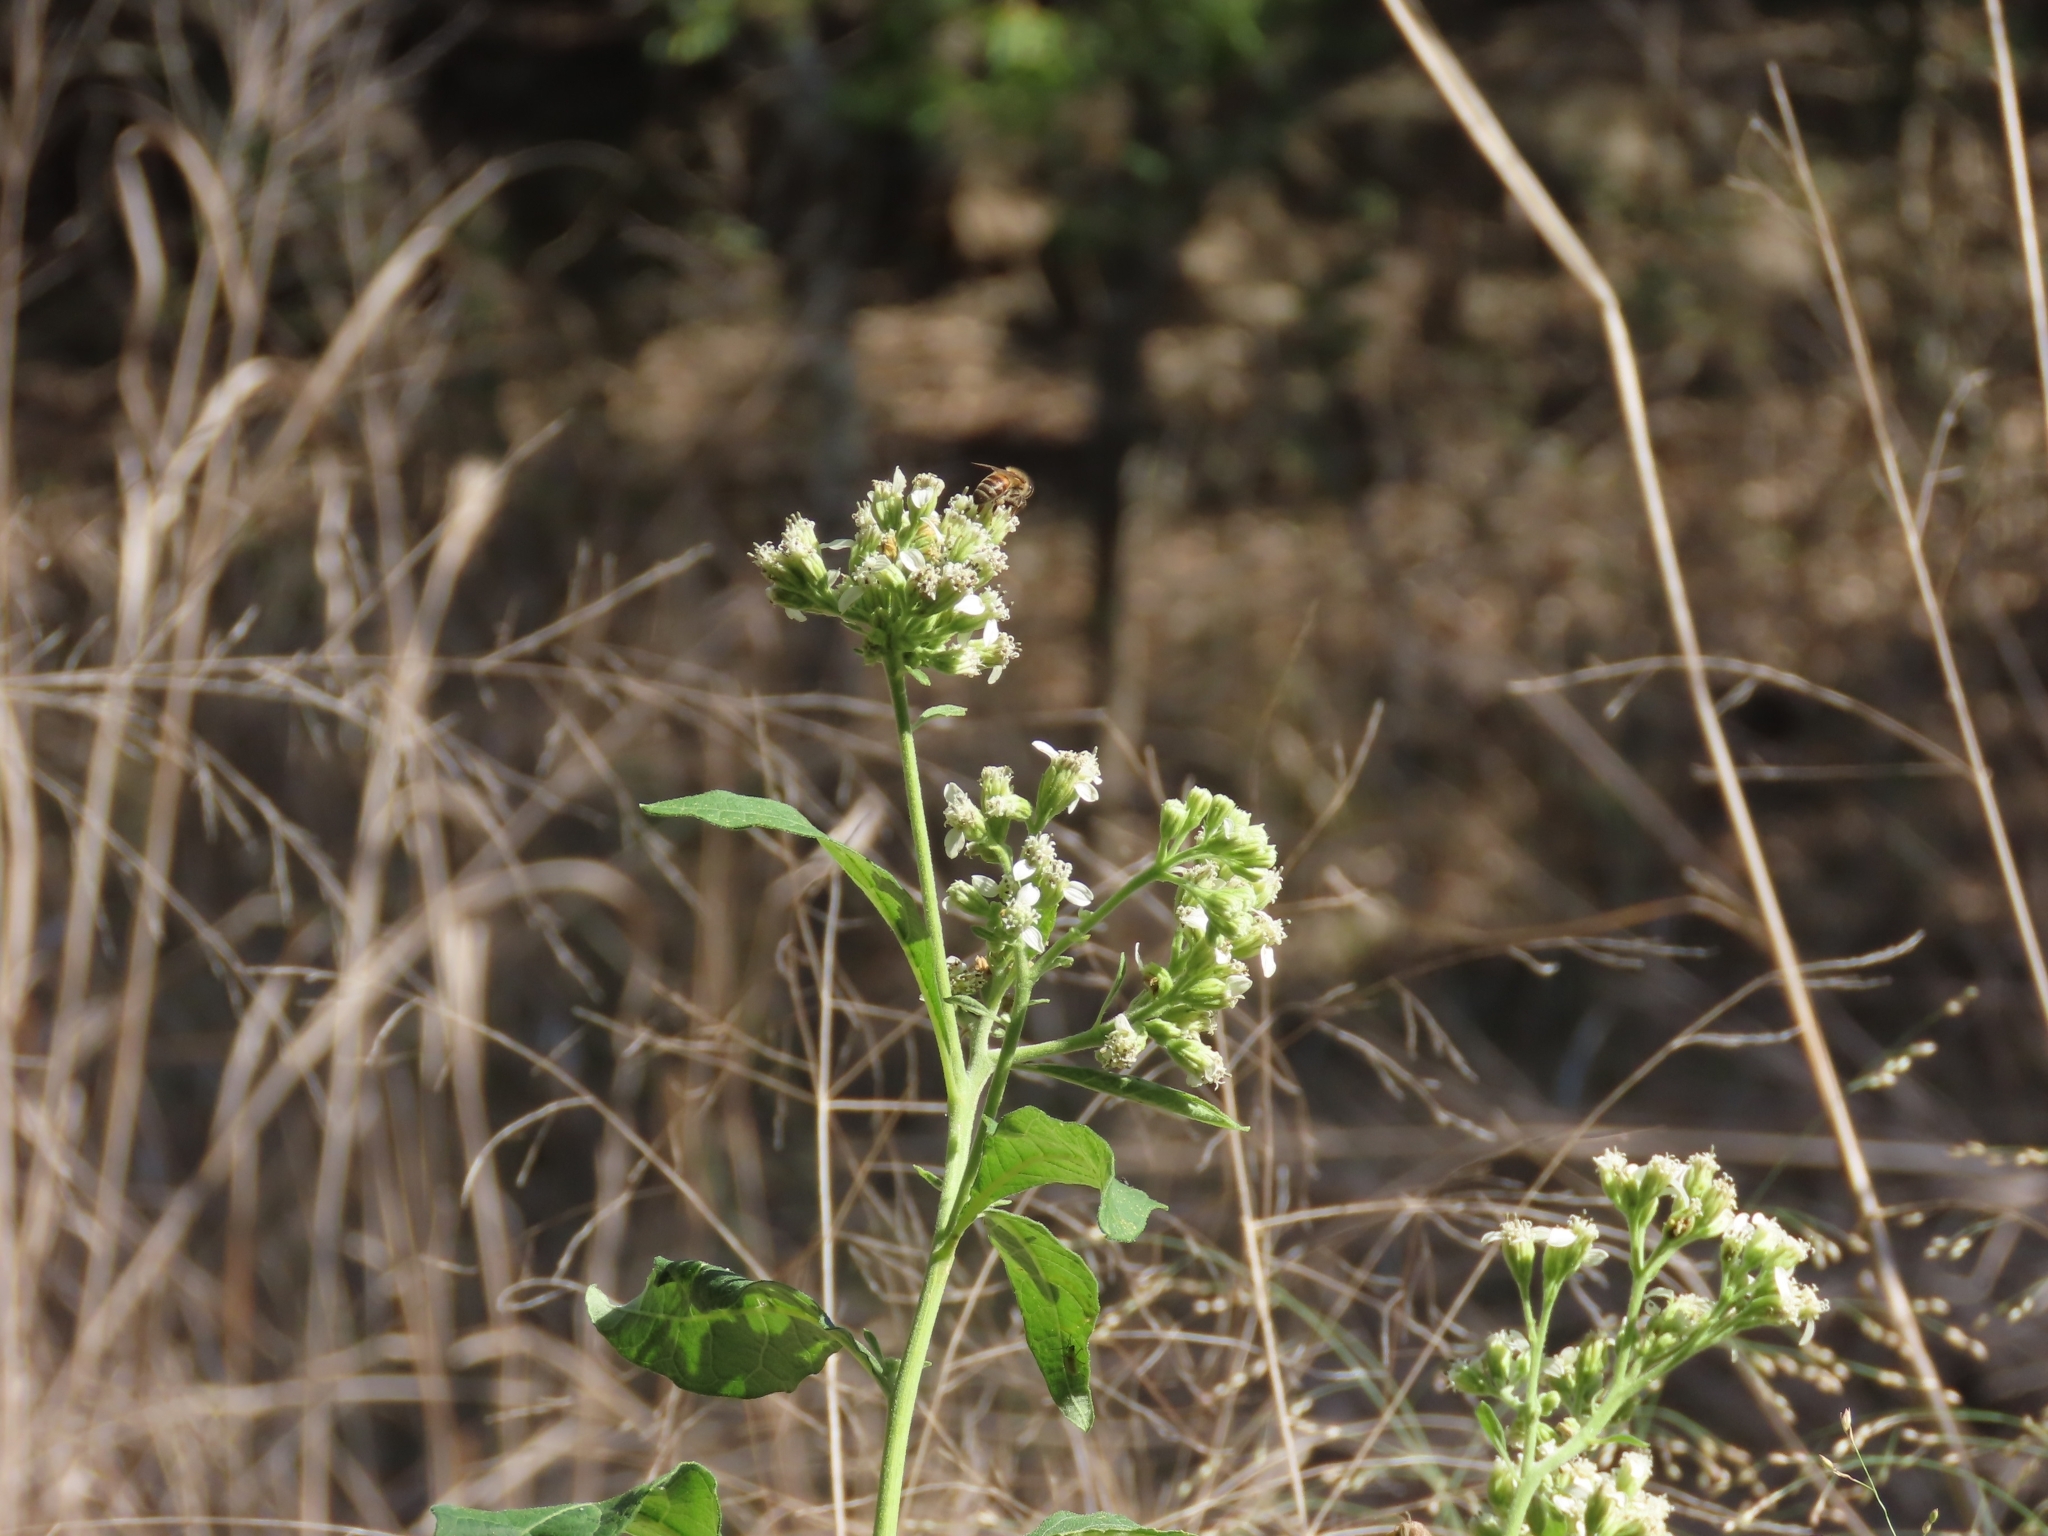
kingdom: Plantae
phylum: Tracheophyta
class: Magnoliopsida
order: Asterales
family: Asteraceae
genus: Verbesina
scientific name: Verbesina virginica
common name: Frostweed
